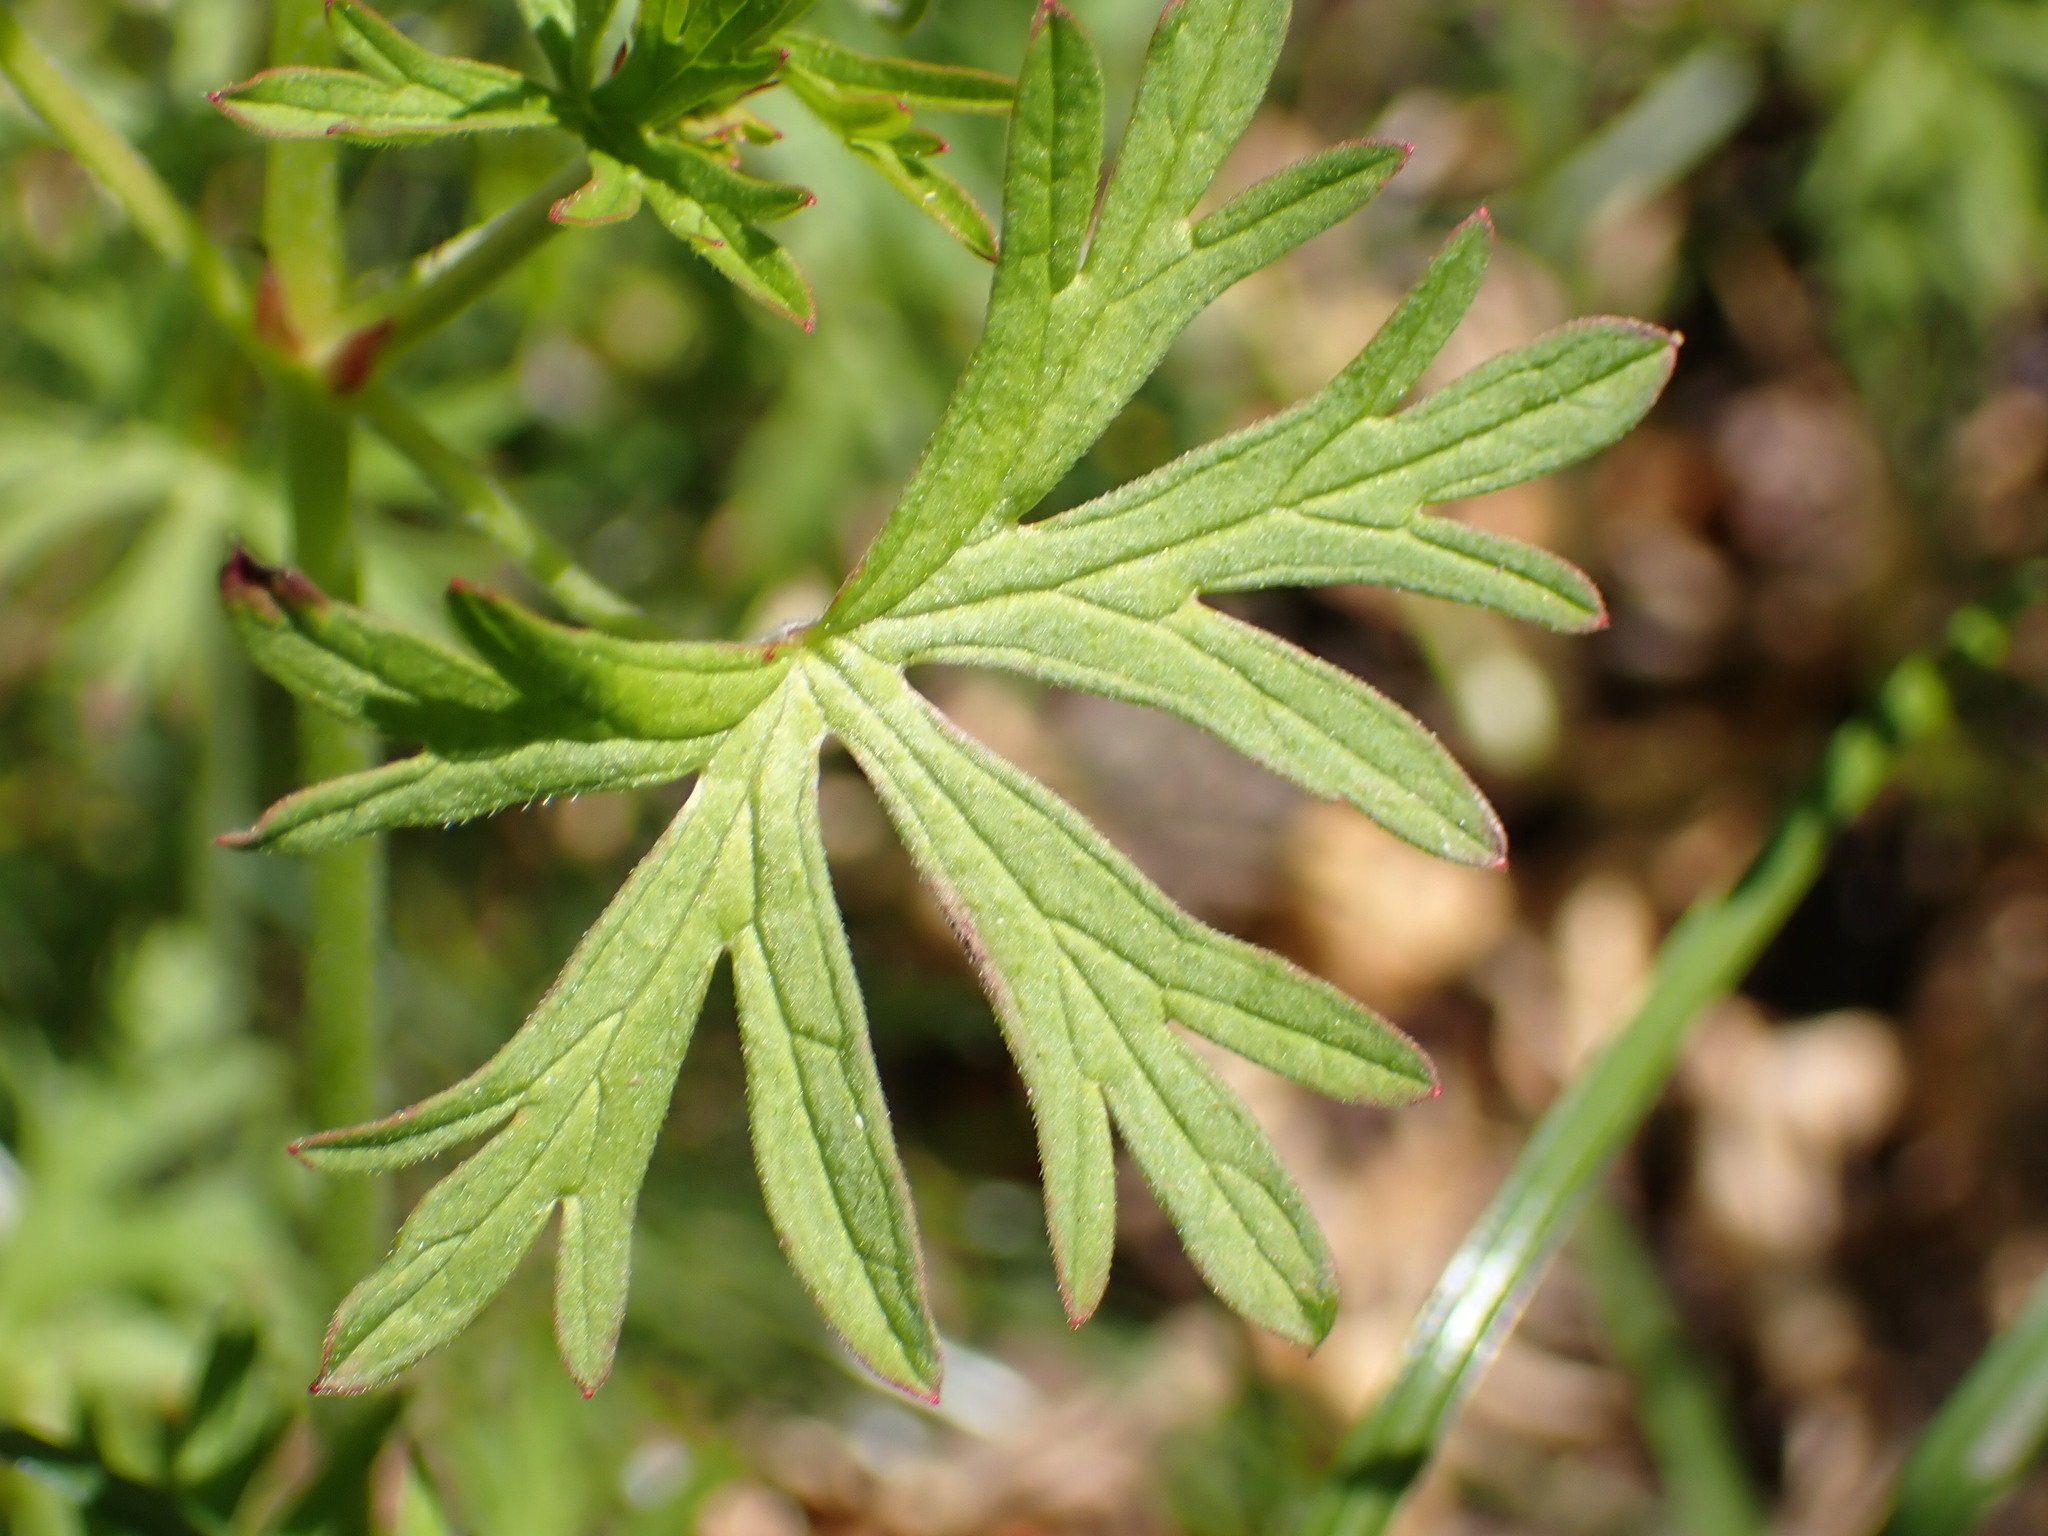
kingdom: Plantae
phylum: Tracheophyta
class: Magnoliopsida
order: Geraniales
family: Geraniaceae
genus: Geranium
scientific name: Geranium dissectum
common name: Cut-leaved crane's-bill
